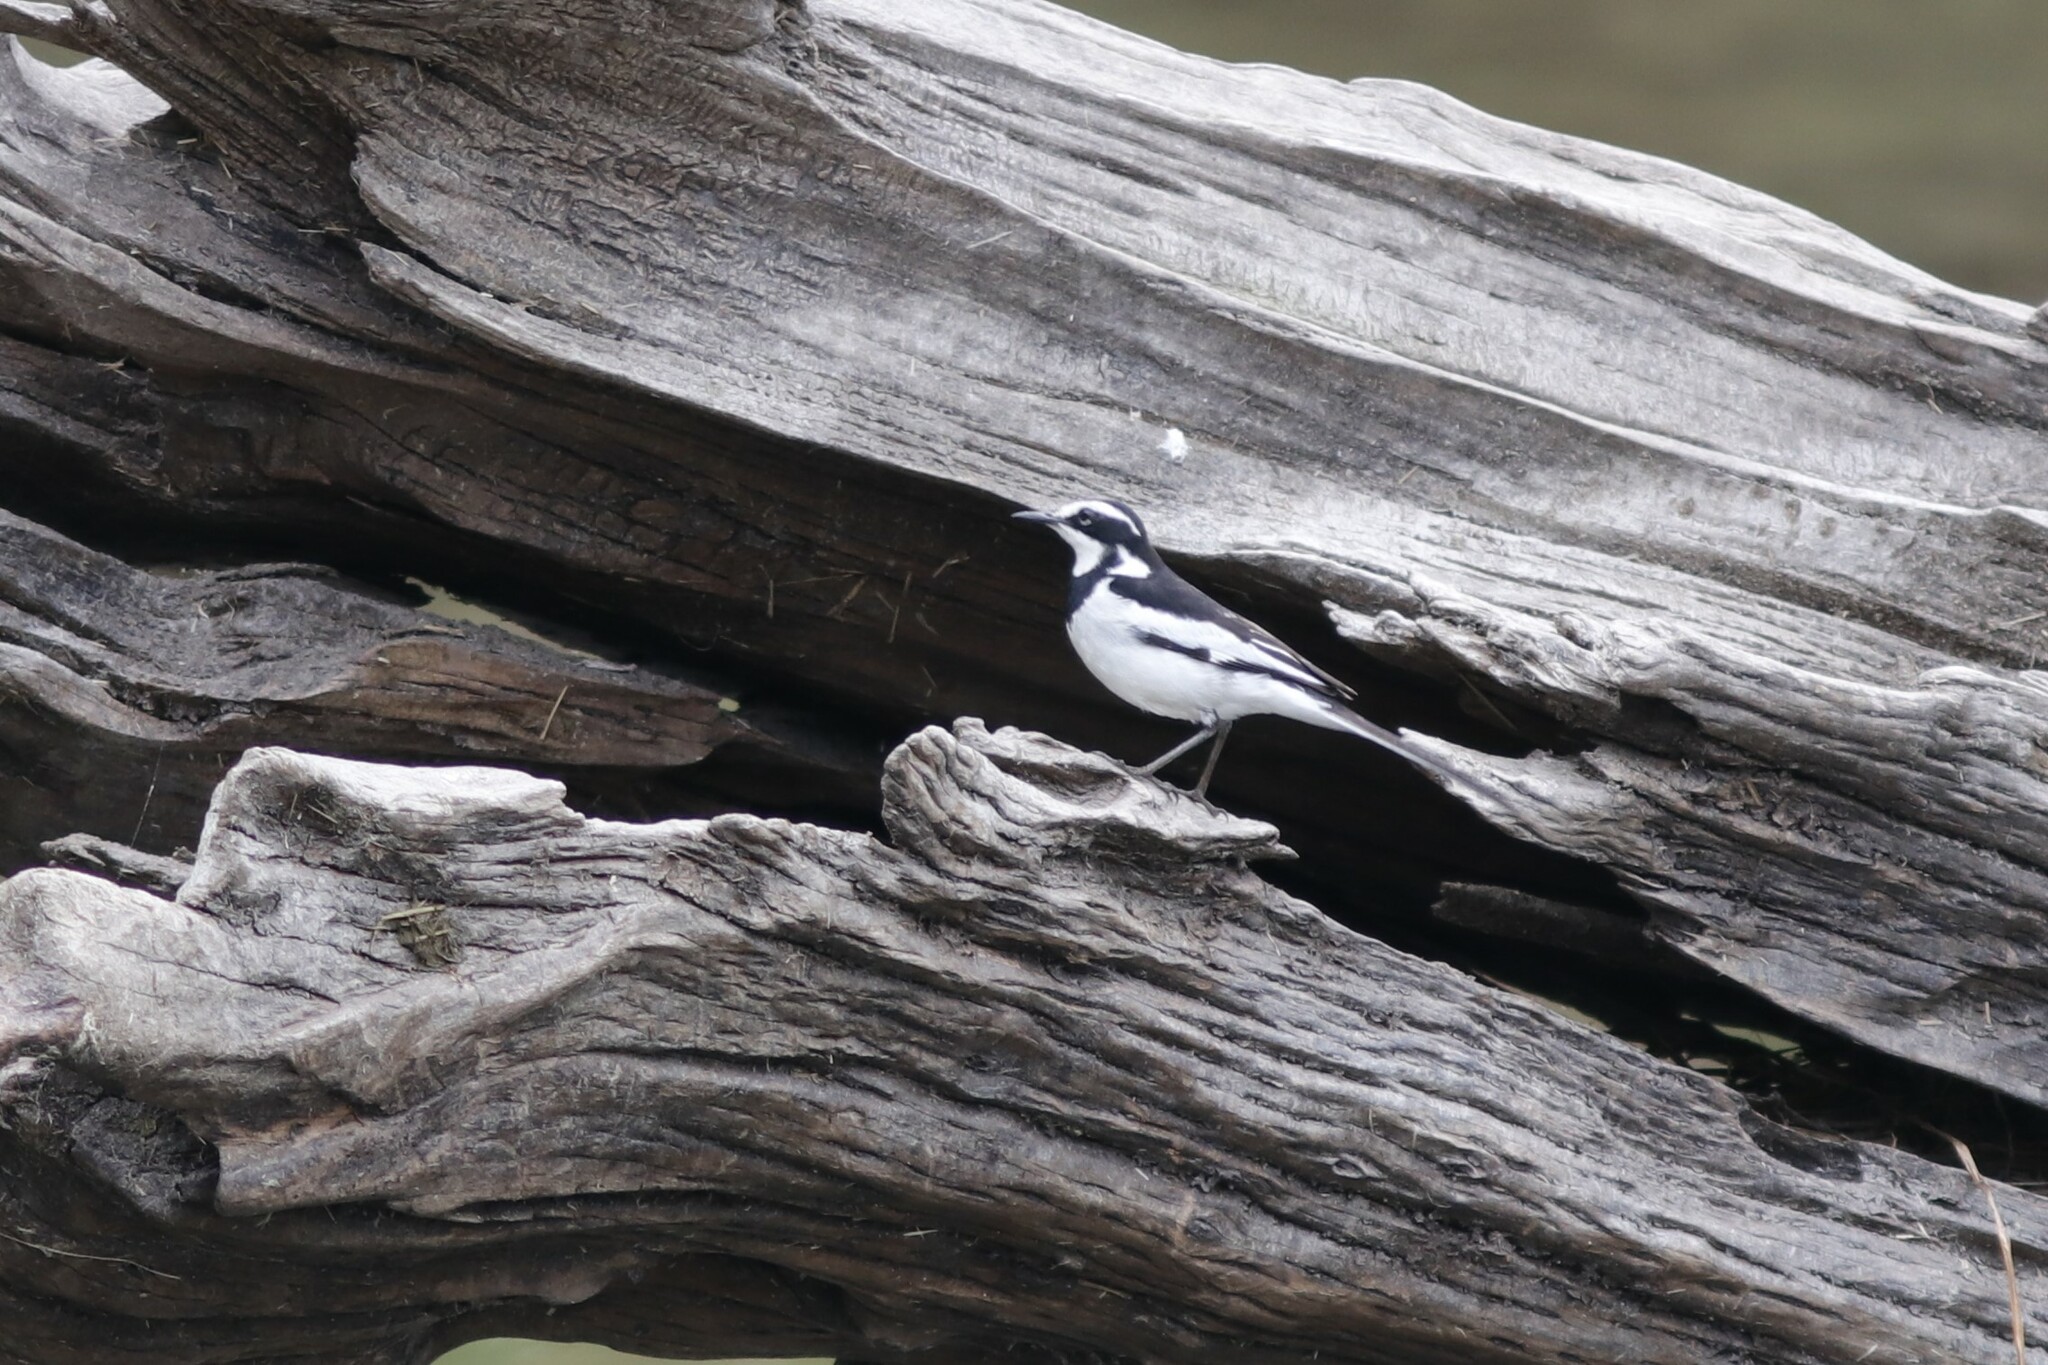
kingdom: Animalia
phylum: Chordata
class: Aves
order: Passeriformes
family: Motacillidae
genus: Motacilla
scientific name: Motacilla aguimp
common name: African pied wagtail
